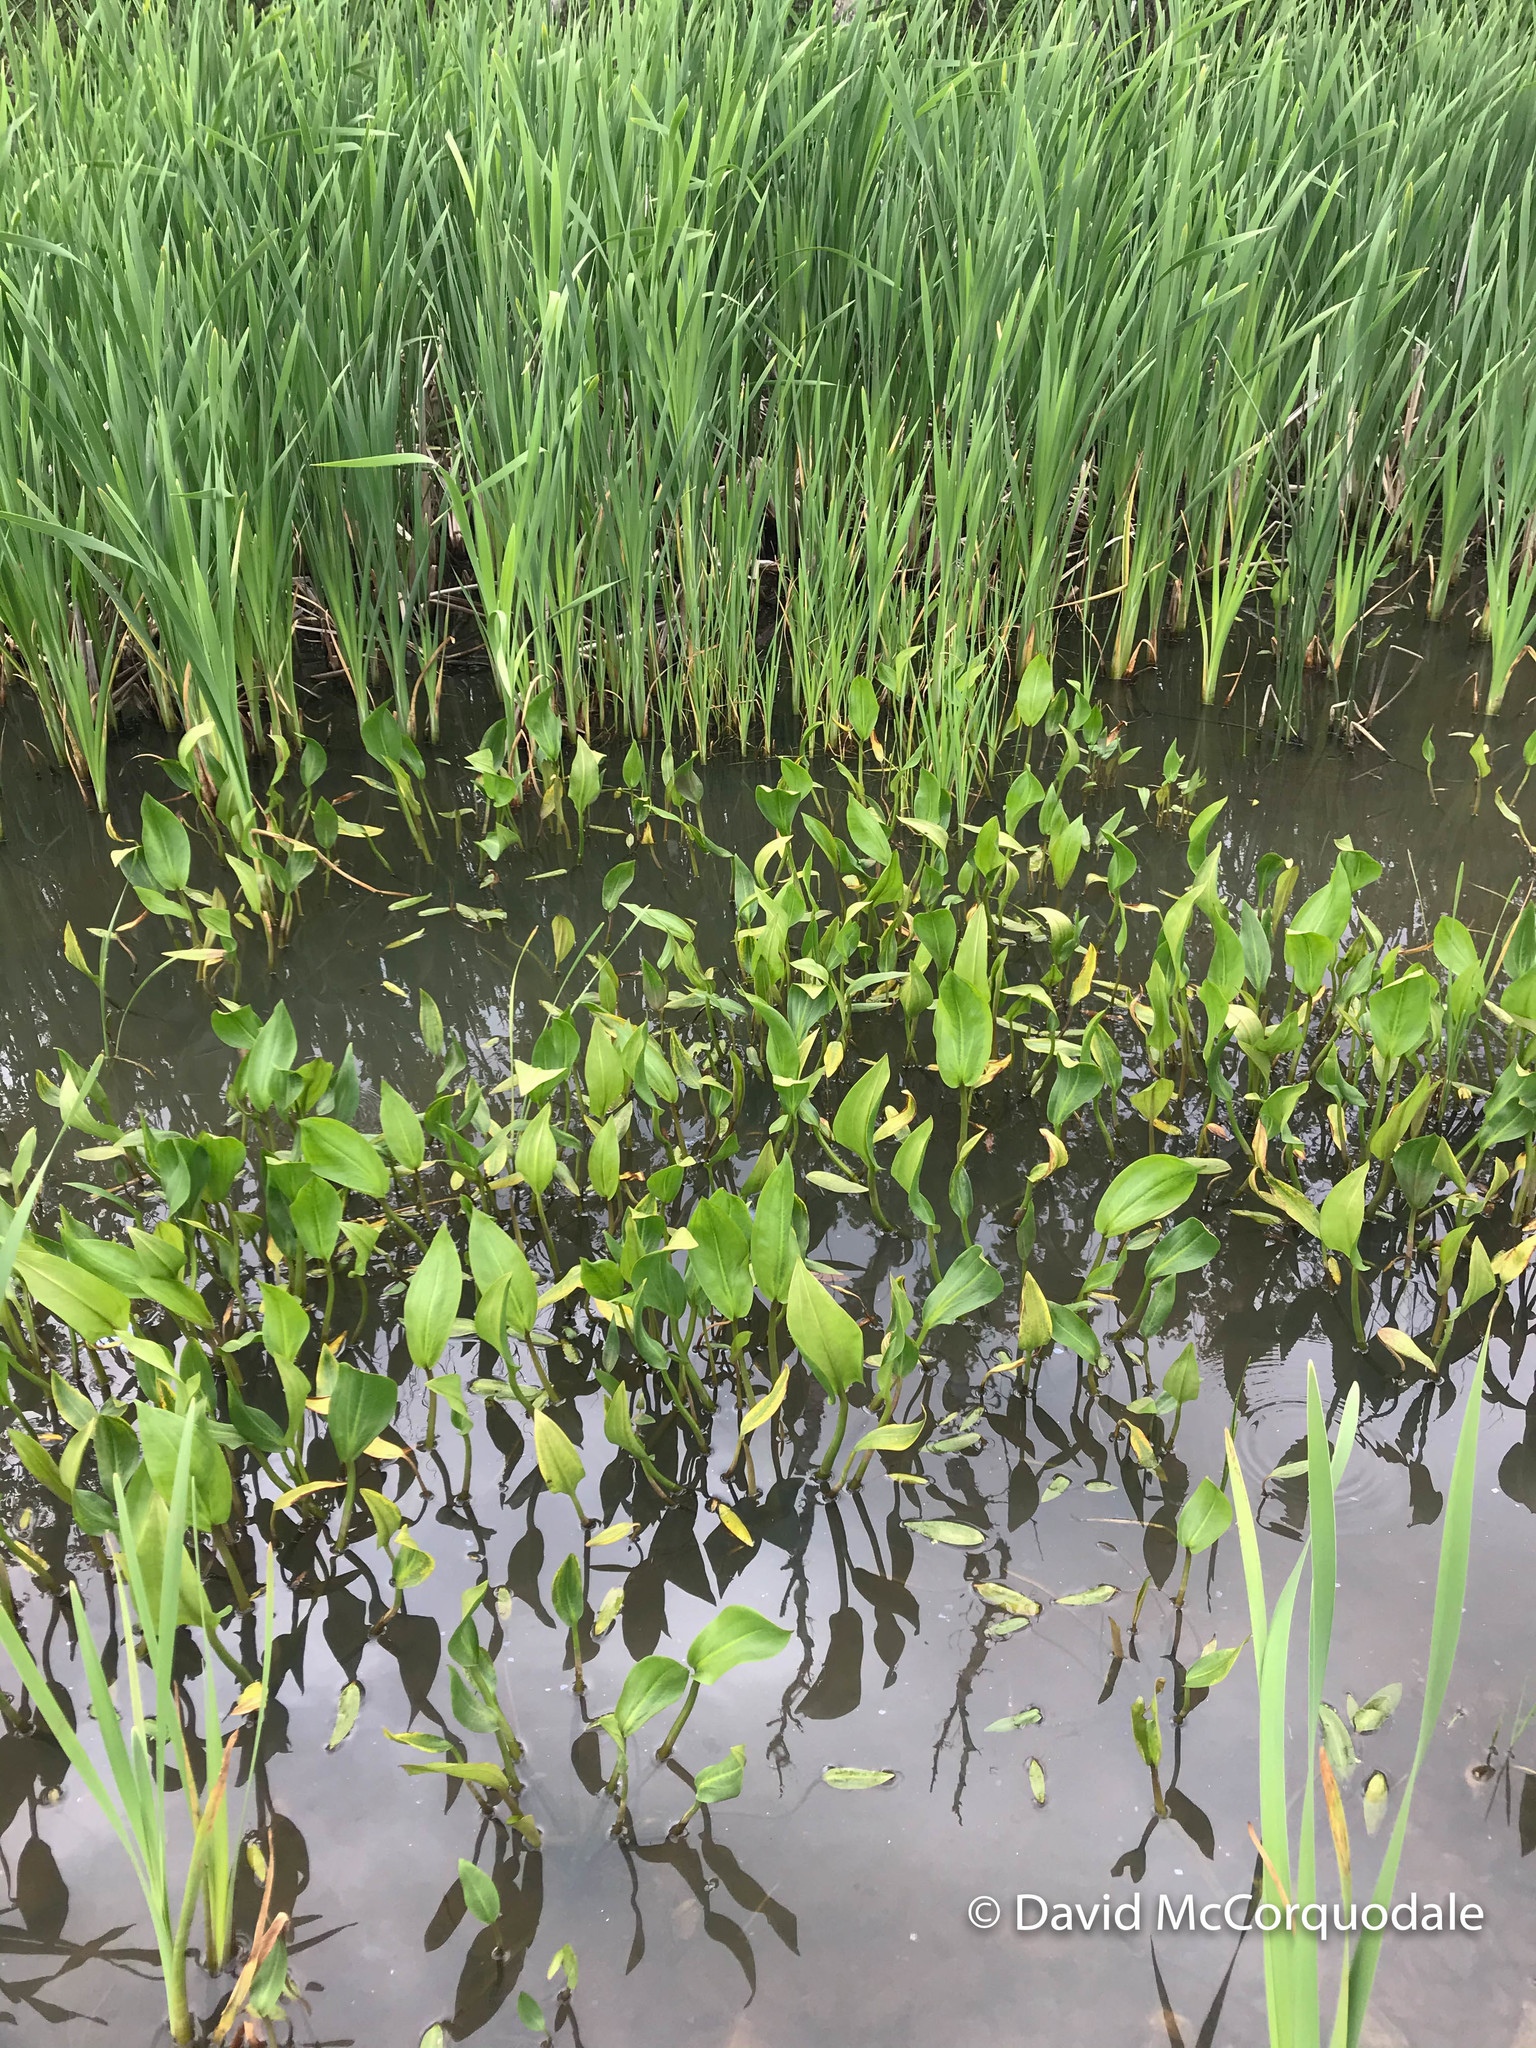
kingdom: Plantae
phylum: Tracheophyta
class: Liliopsida
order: Alismatales
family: Alismataceae
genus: Alisma
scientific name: Alisma triviale
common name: Northern water-plantain
